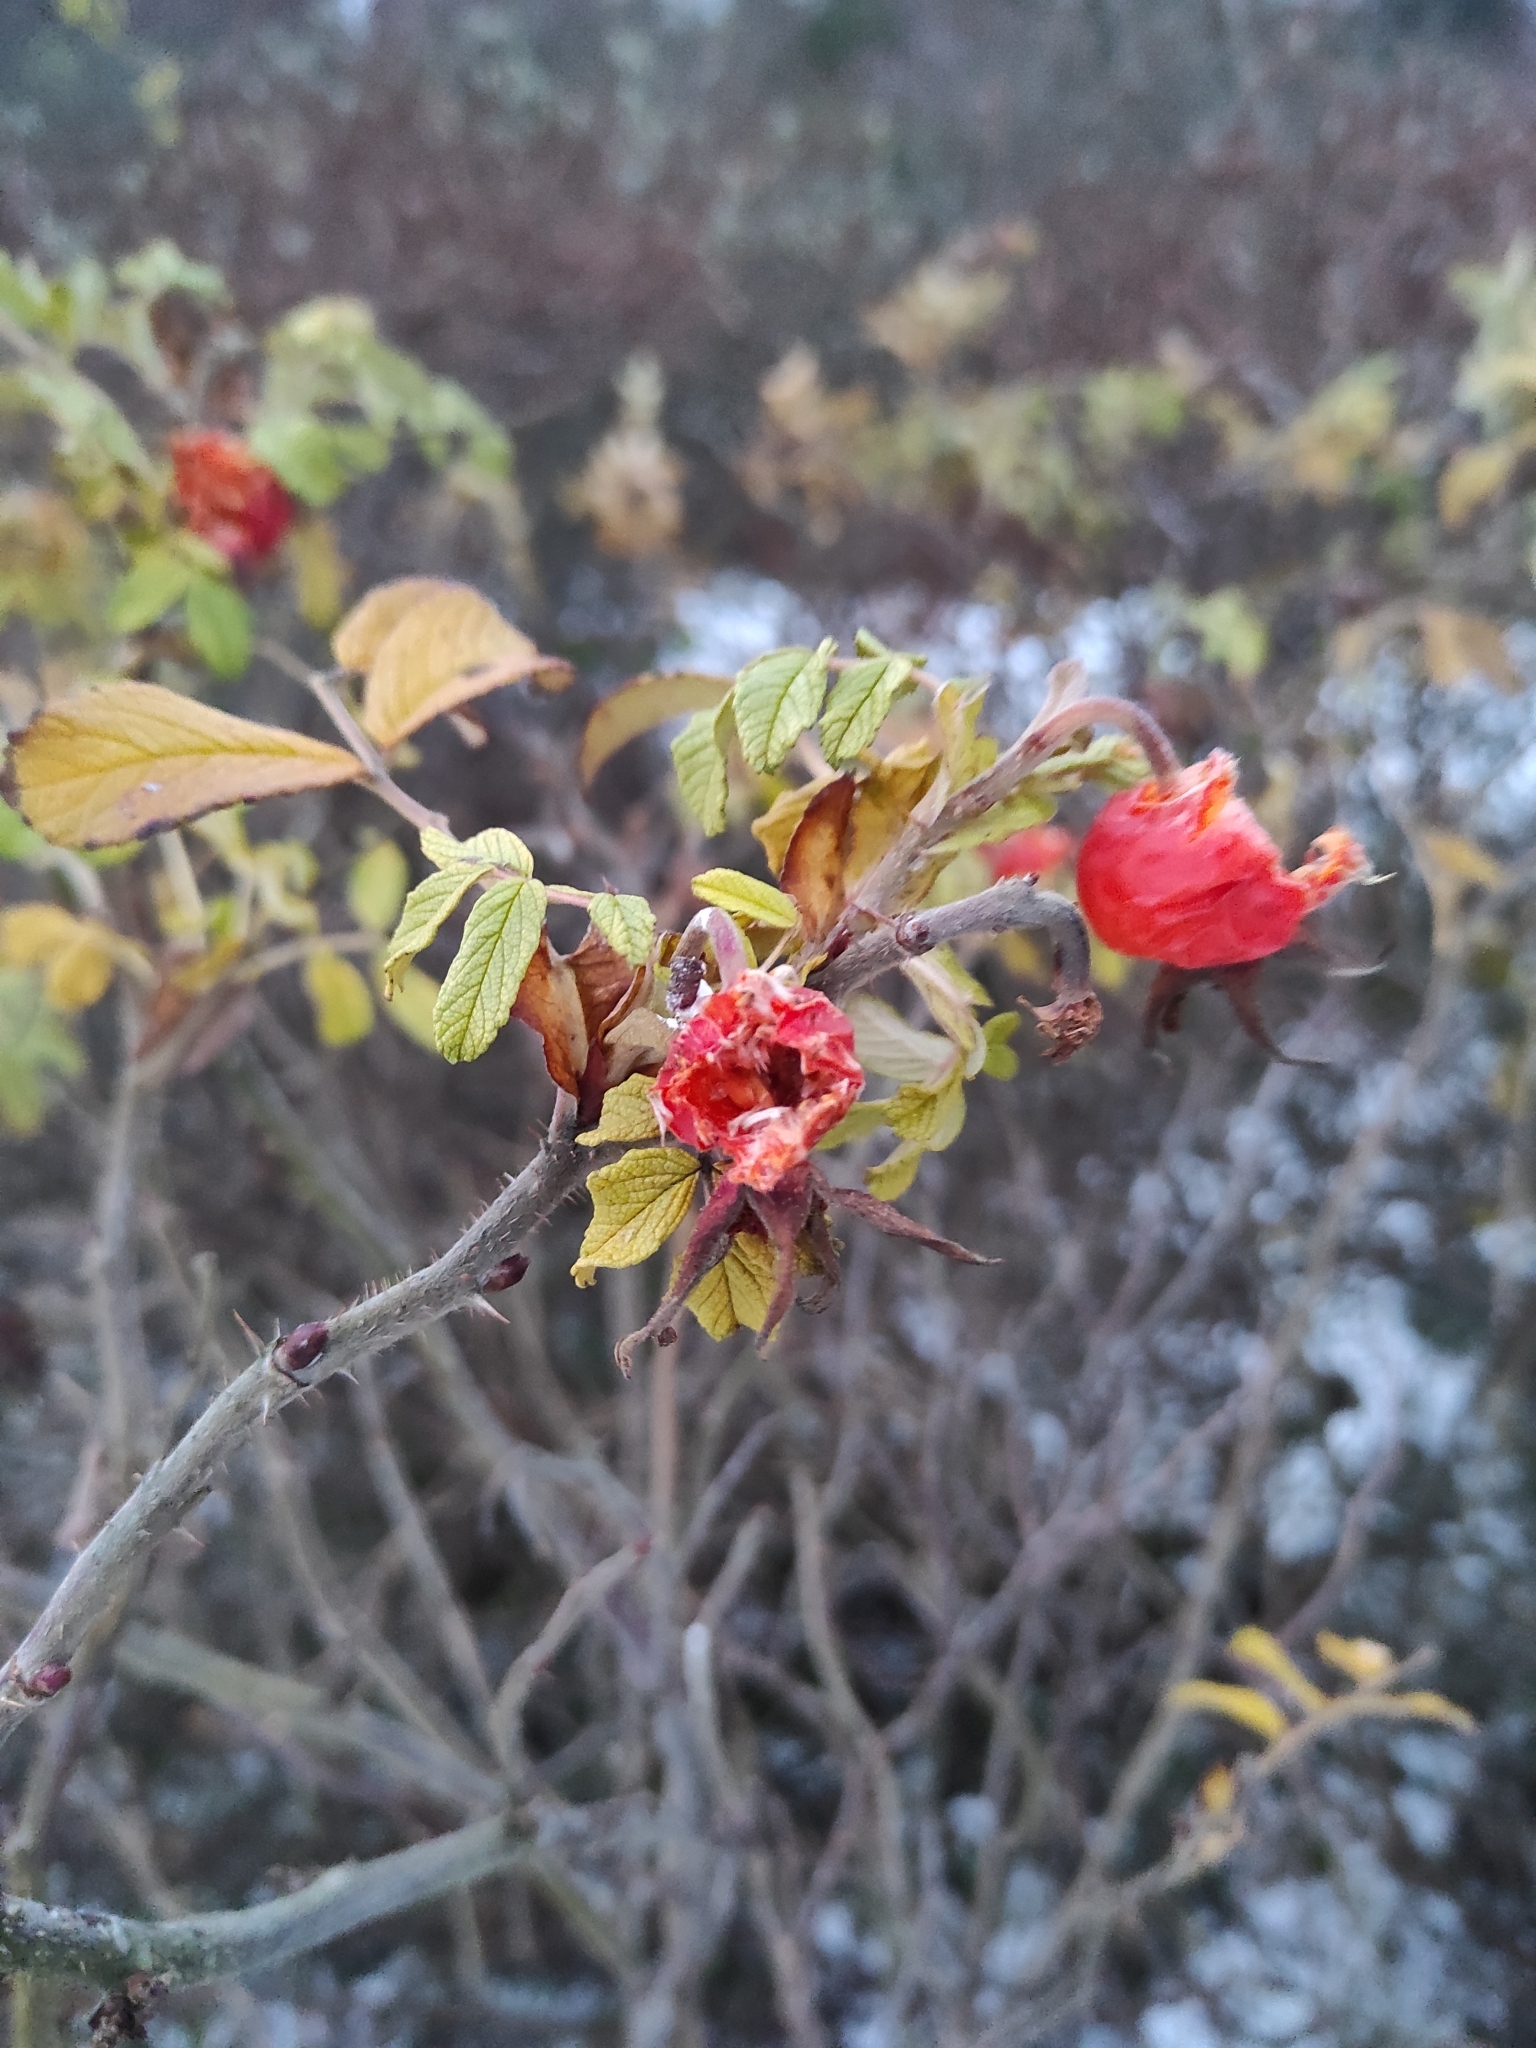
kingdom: Plantae
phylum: Tracheophyta
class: Magnoliopsida
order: Rosales
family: Rosaceae
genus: Rosa
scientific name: Rosa rugosa
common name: Japanese rose
